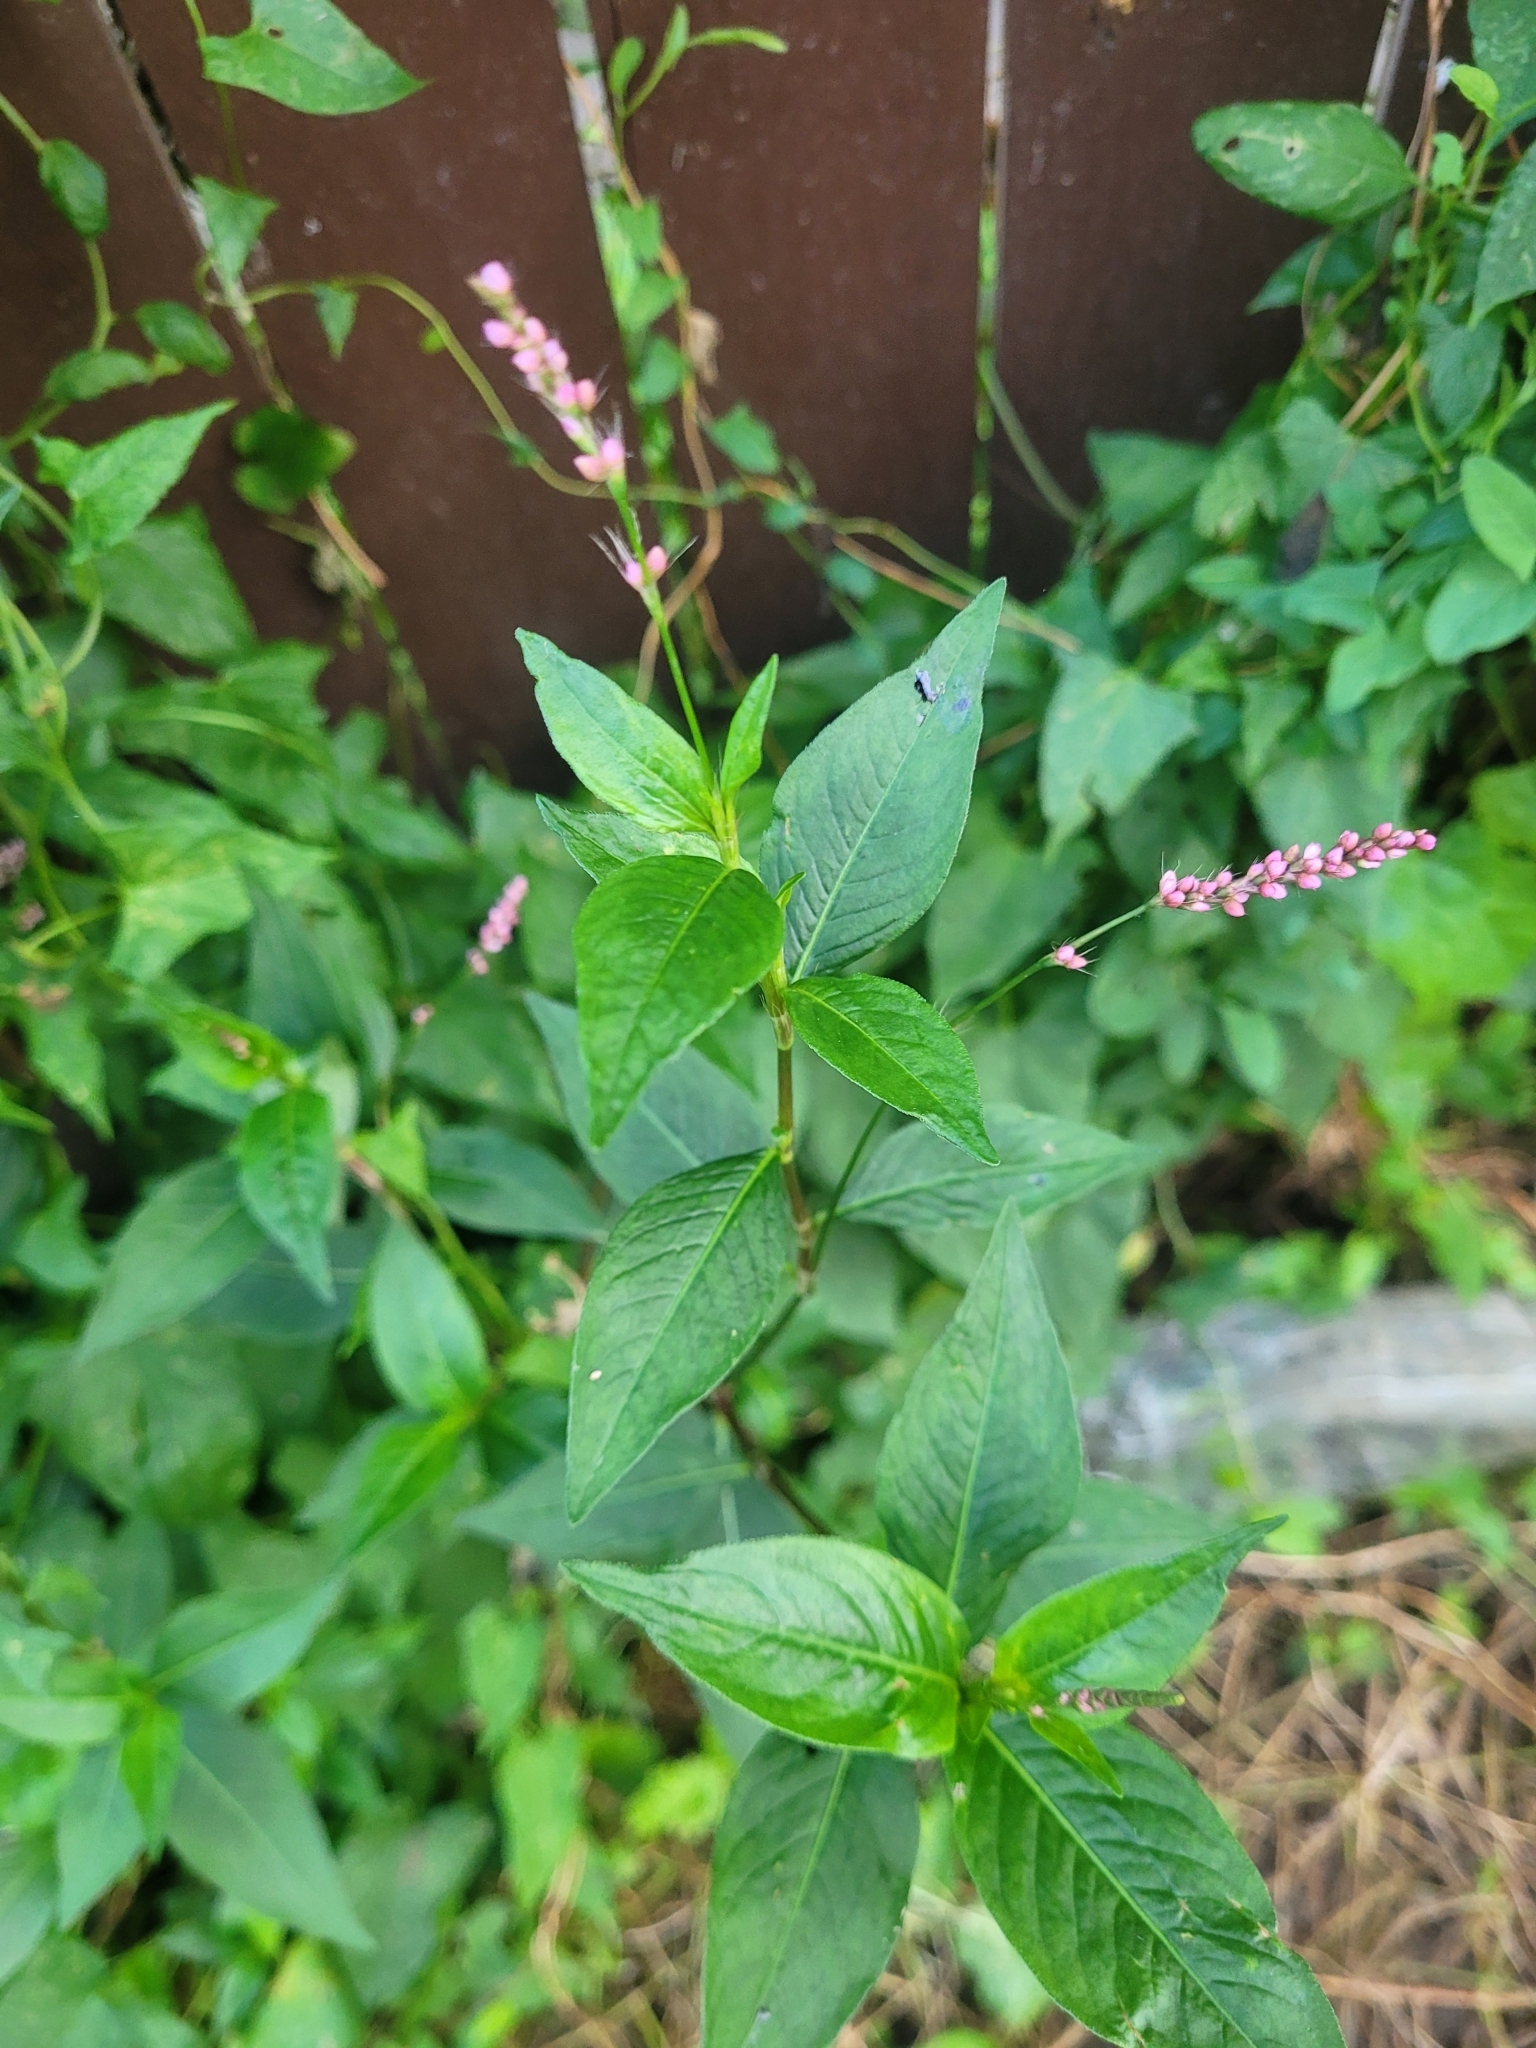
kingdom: Plantae
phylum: Tracheophyta
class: Magnoliopsida
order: Caryophyllales
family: Polygonaceae
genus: Persicaria
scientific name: Persicaria longiseta
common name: Bristly lady's-thumb
